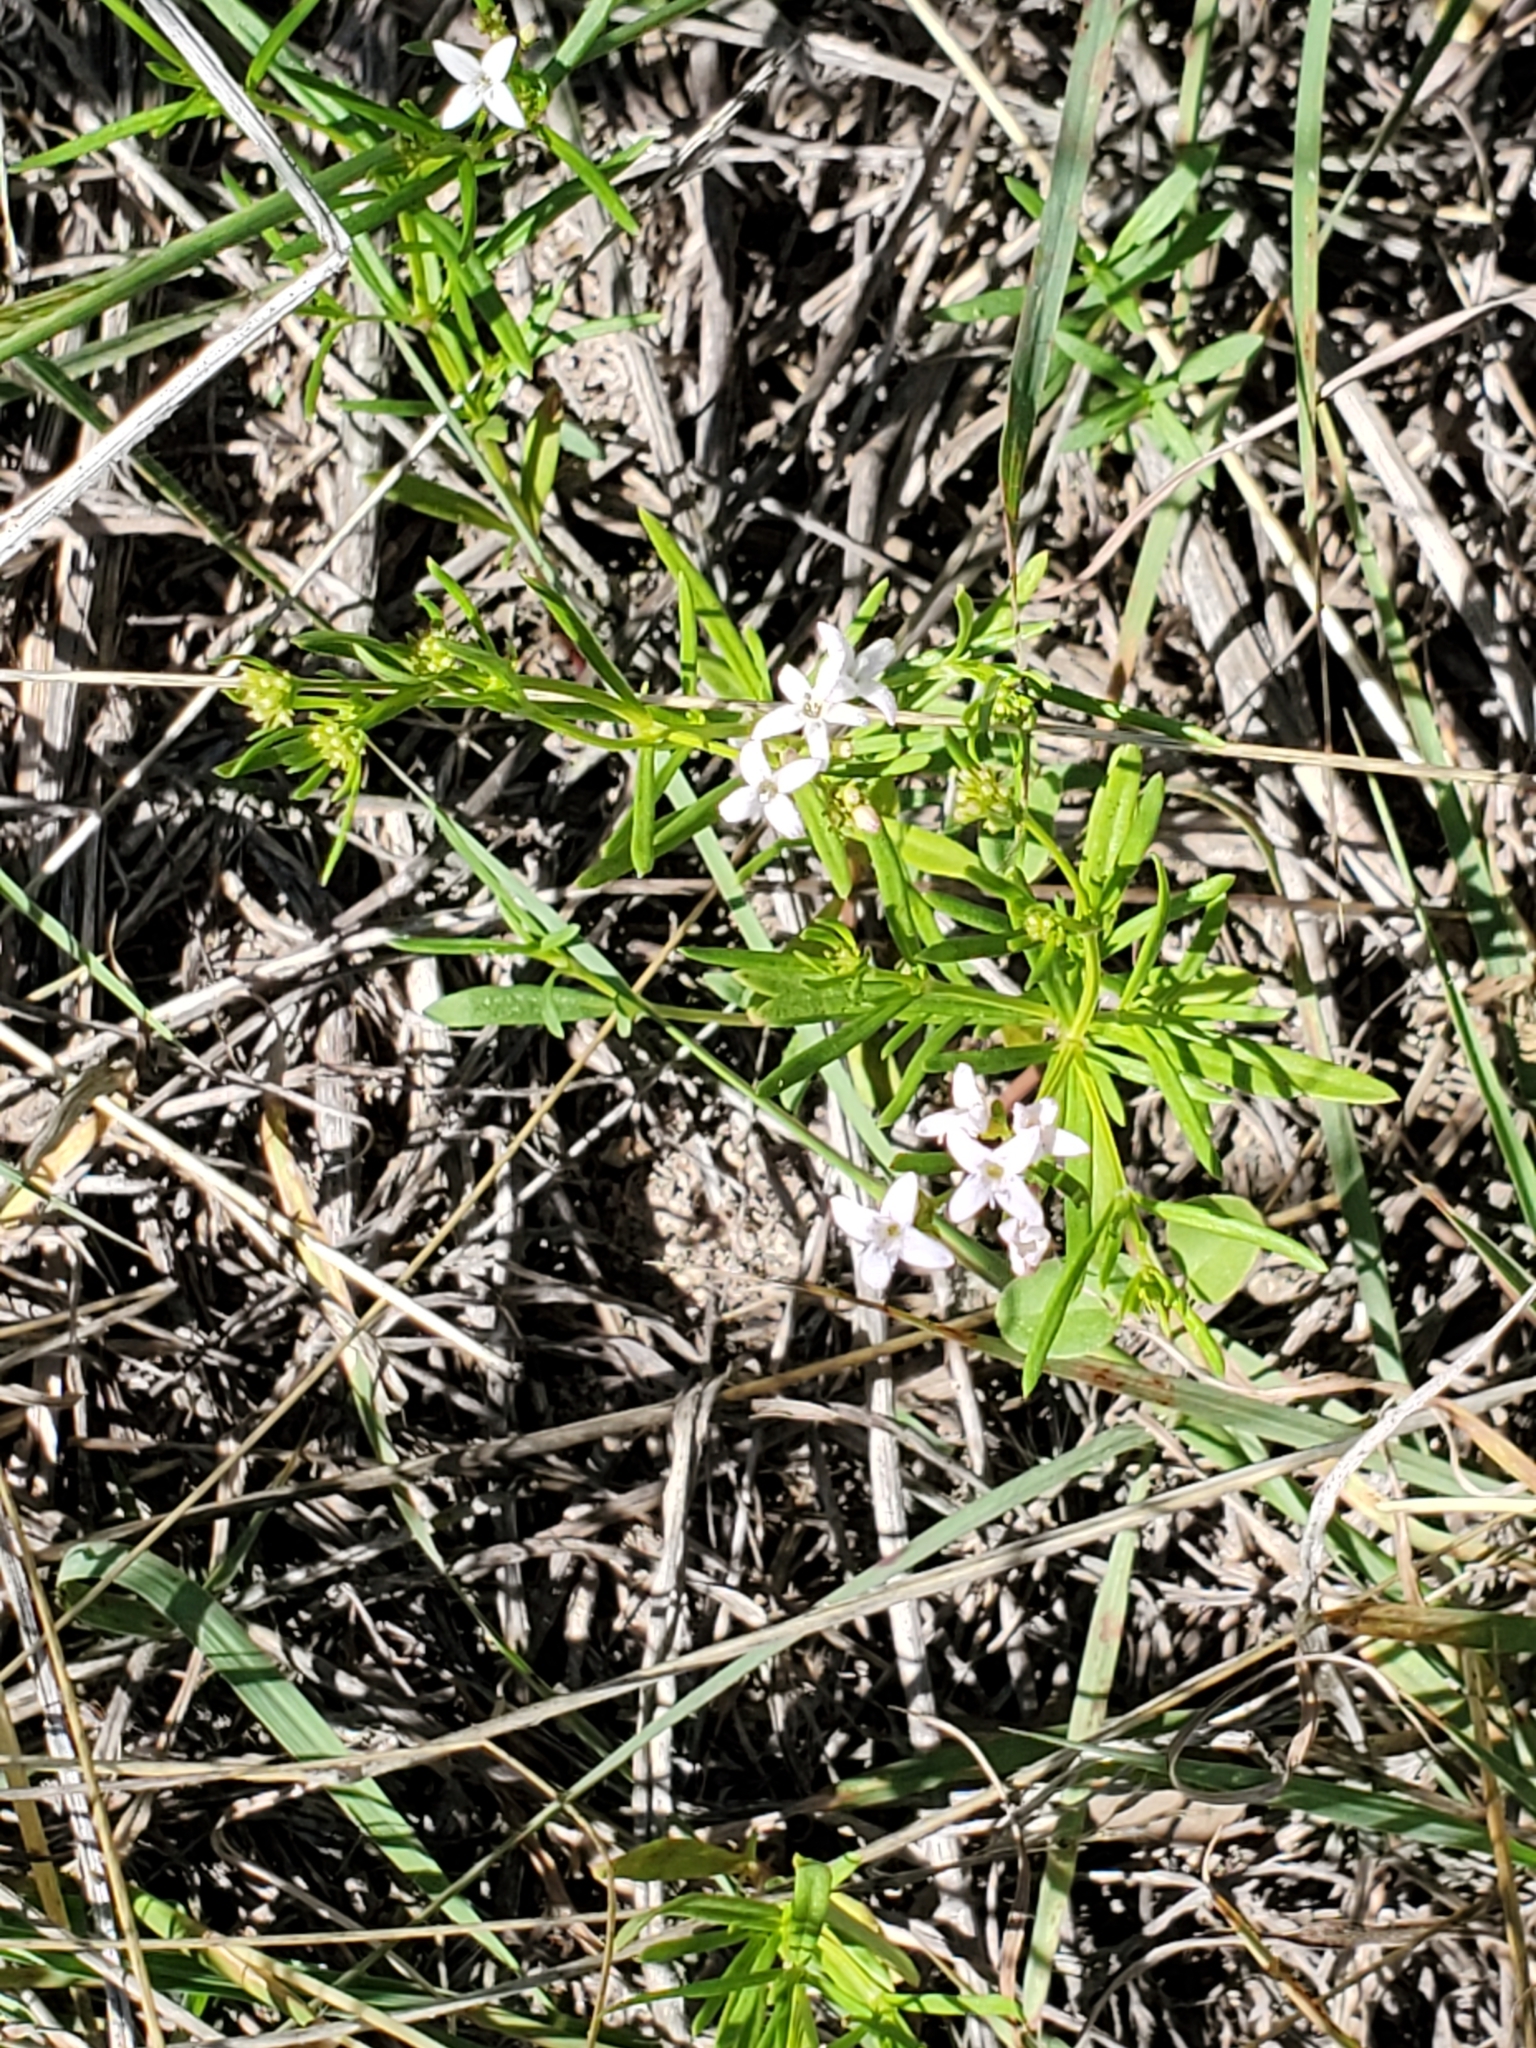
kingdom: Plantae
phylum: Tracheophyta
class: Magnoliopsida
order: Gentianales
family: Rubiaceae
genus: Stenaria
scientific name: Stenaria nigricans
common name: Diamondflowers
